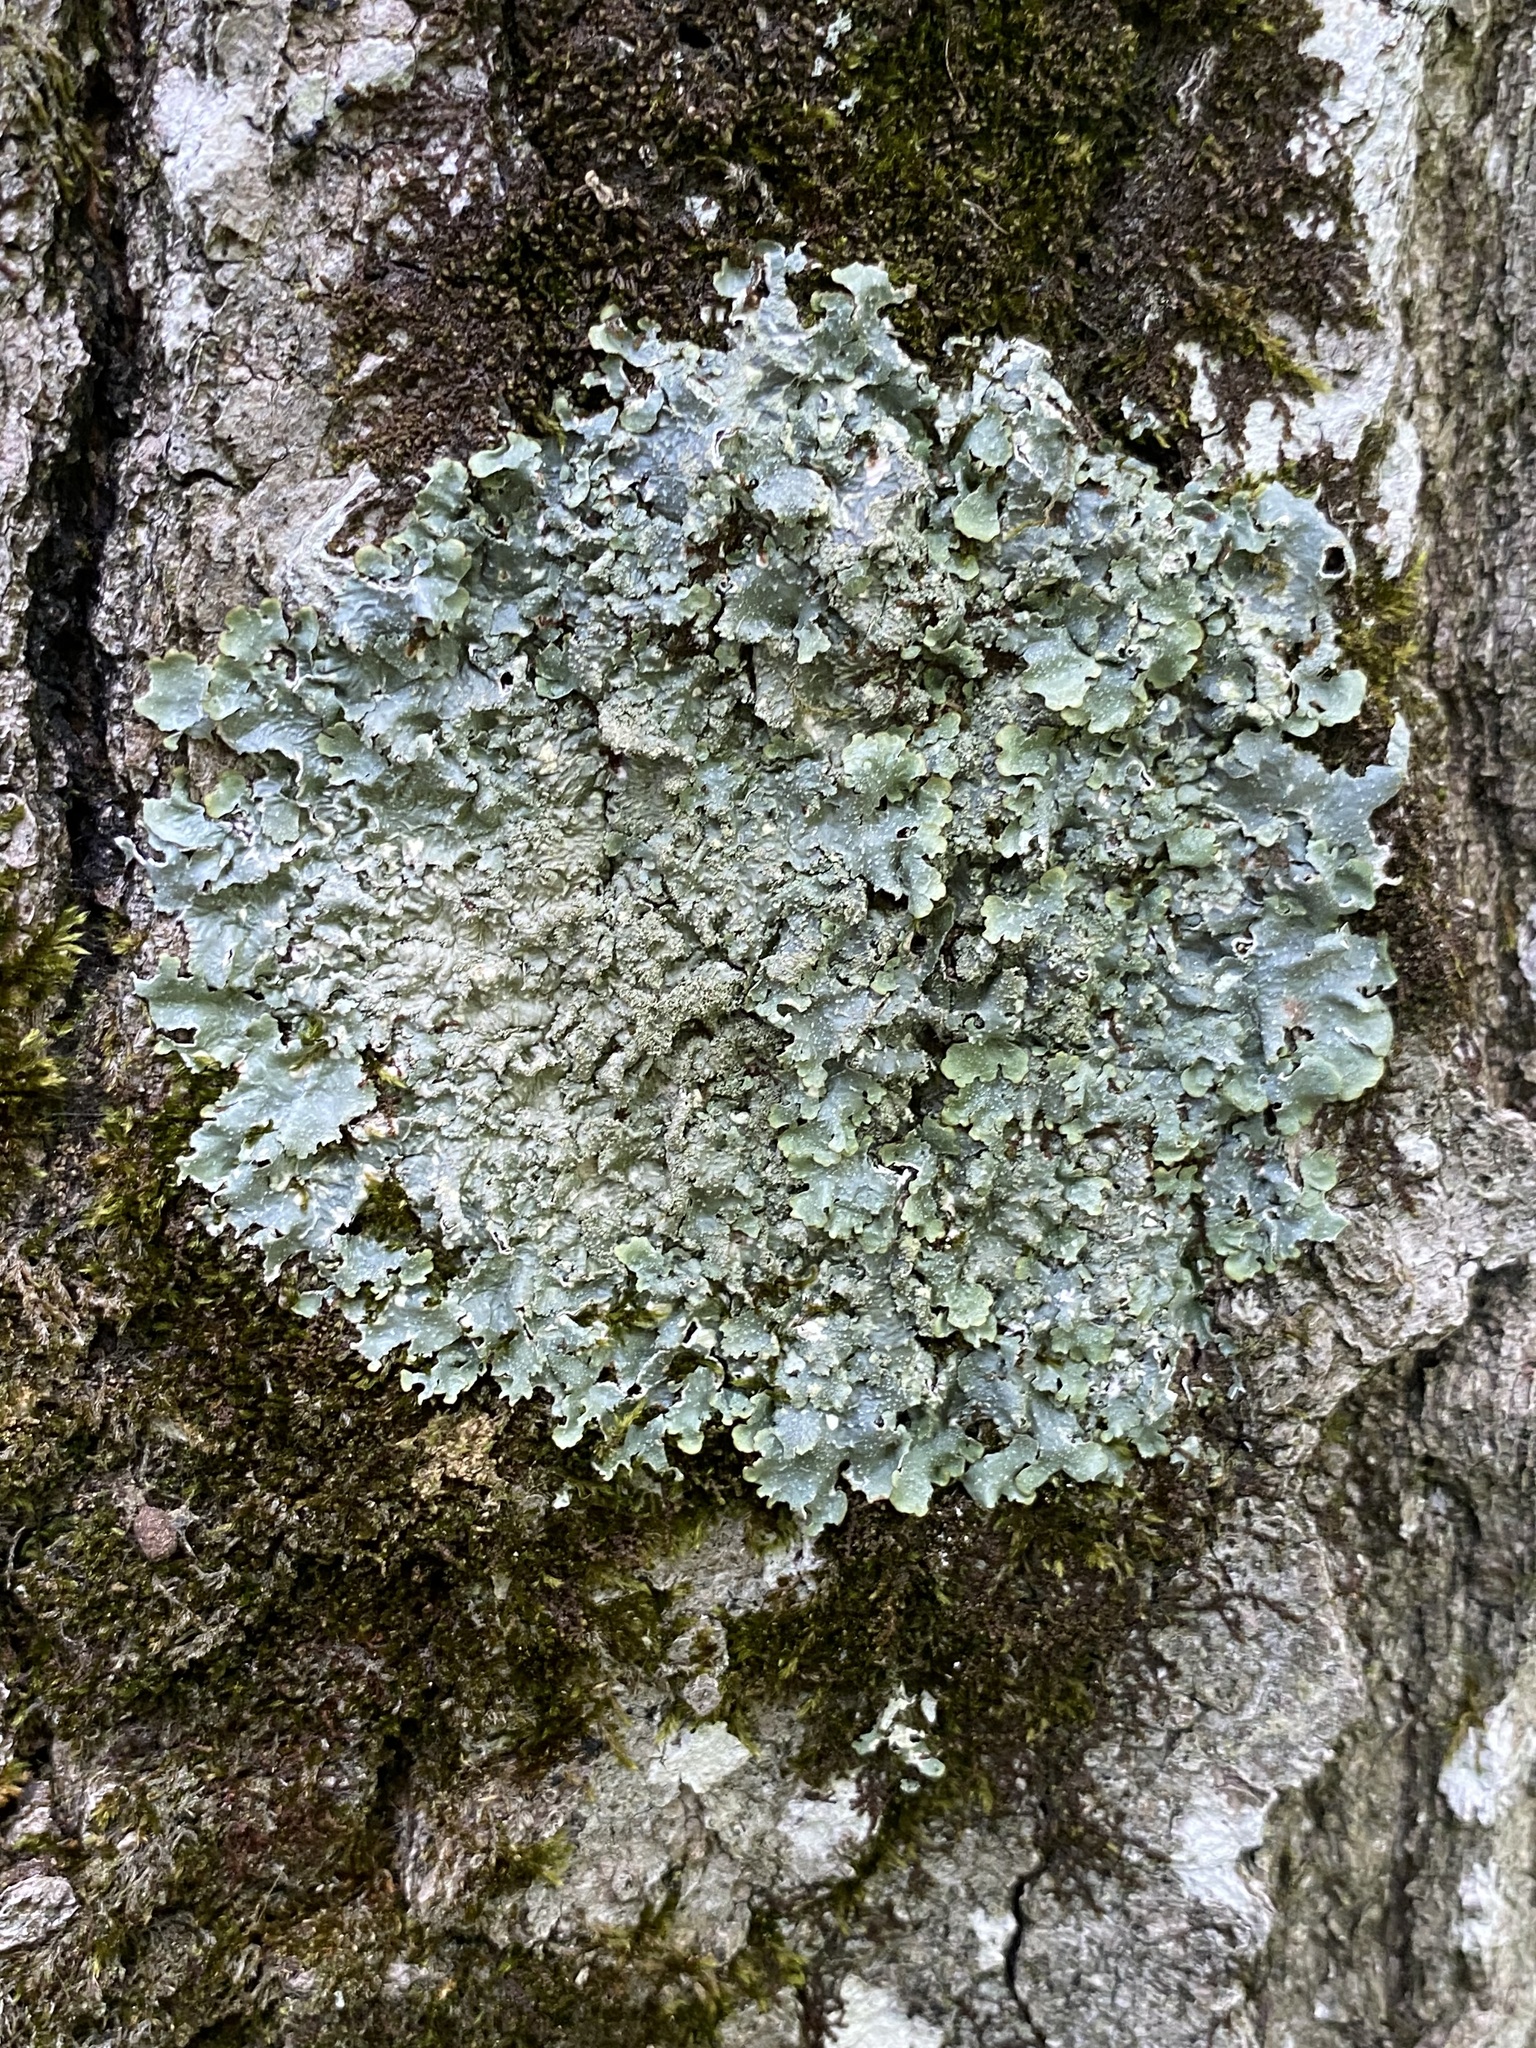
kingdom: Fungi
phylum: Ascomycota
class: Lecanoromycetes
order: Lecanorales
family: Parmeliaceae
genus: Punctelia
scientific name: Punctelia rudecta
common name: Rough speckled shield lichen
